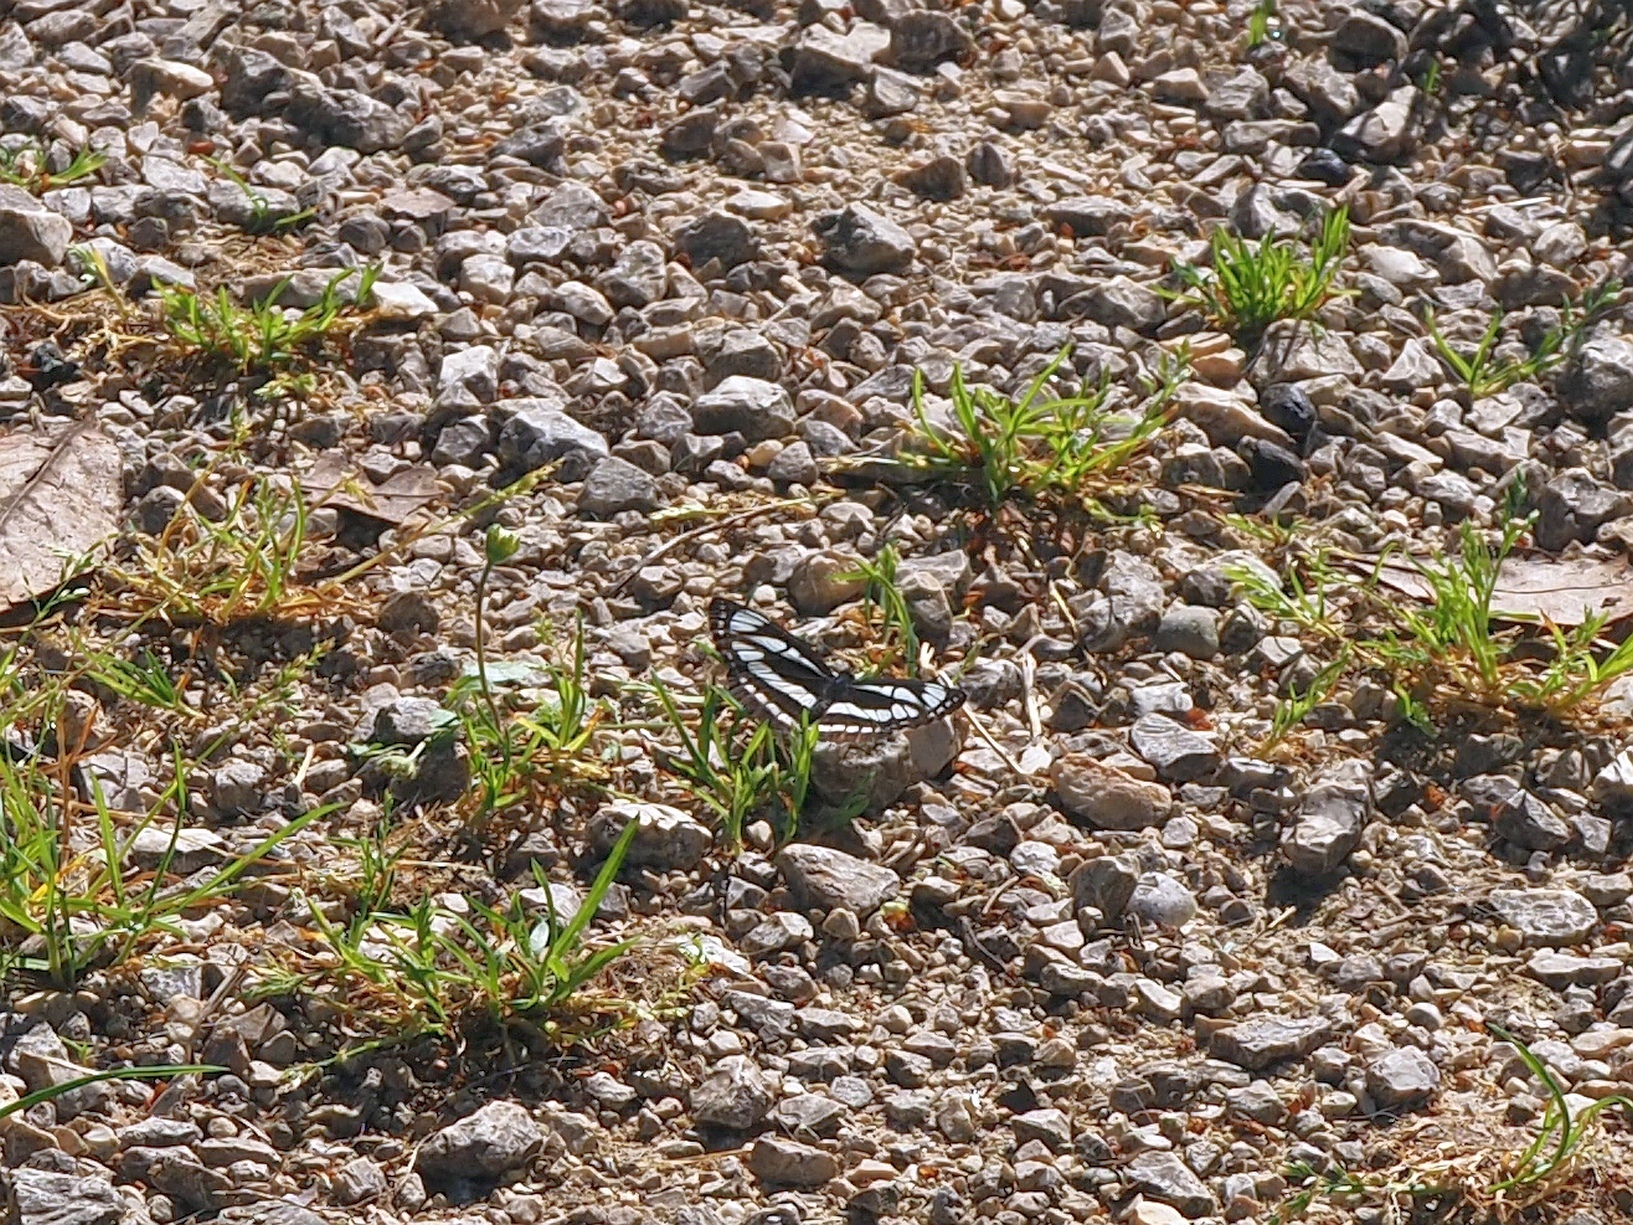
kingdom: Animalia
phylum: Arthropoda
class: Insecta
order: Lepidoptera
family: Nymphalidae
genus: Neptis
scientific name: Neptis sappho
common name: Common glider
